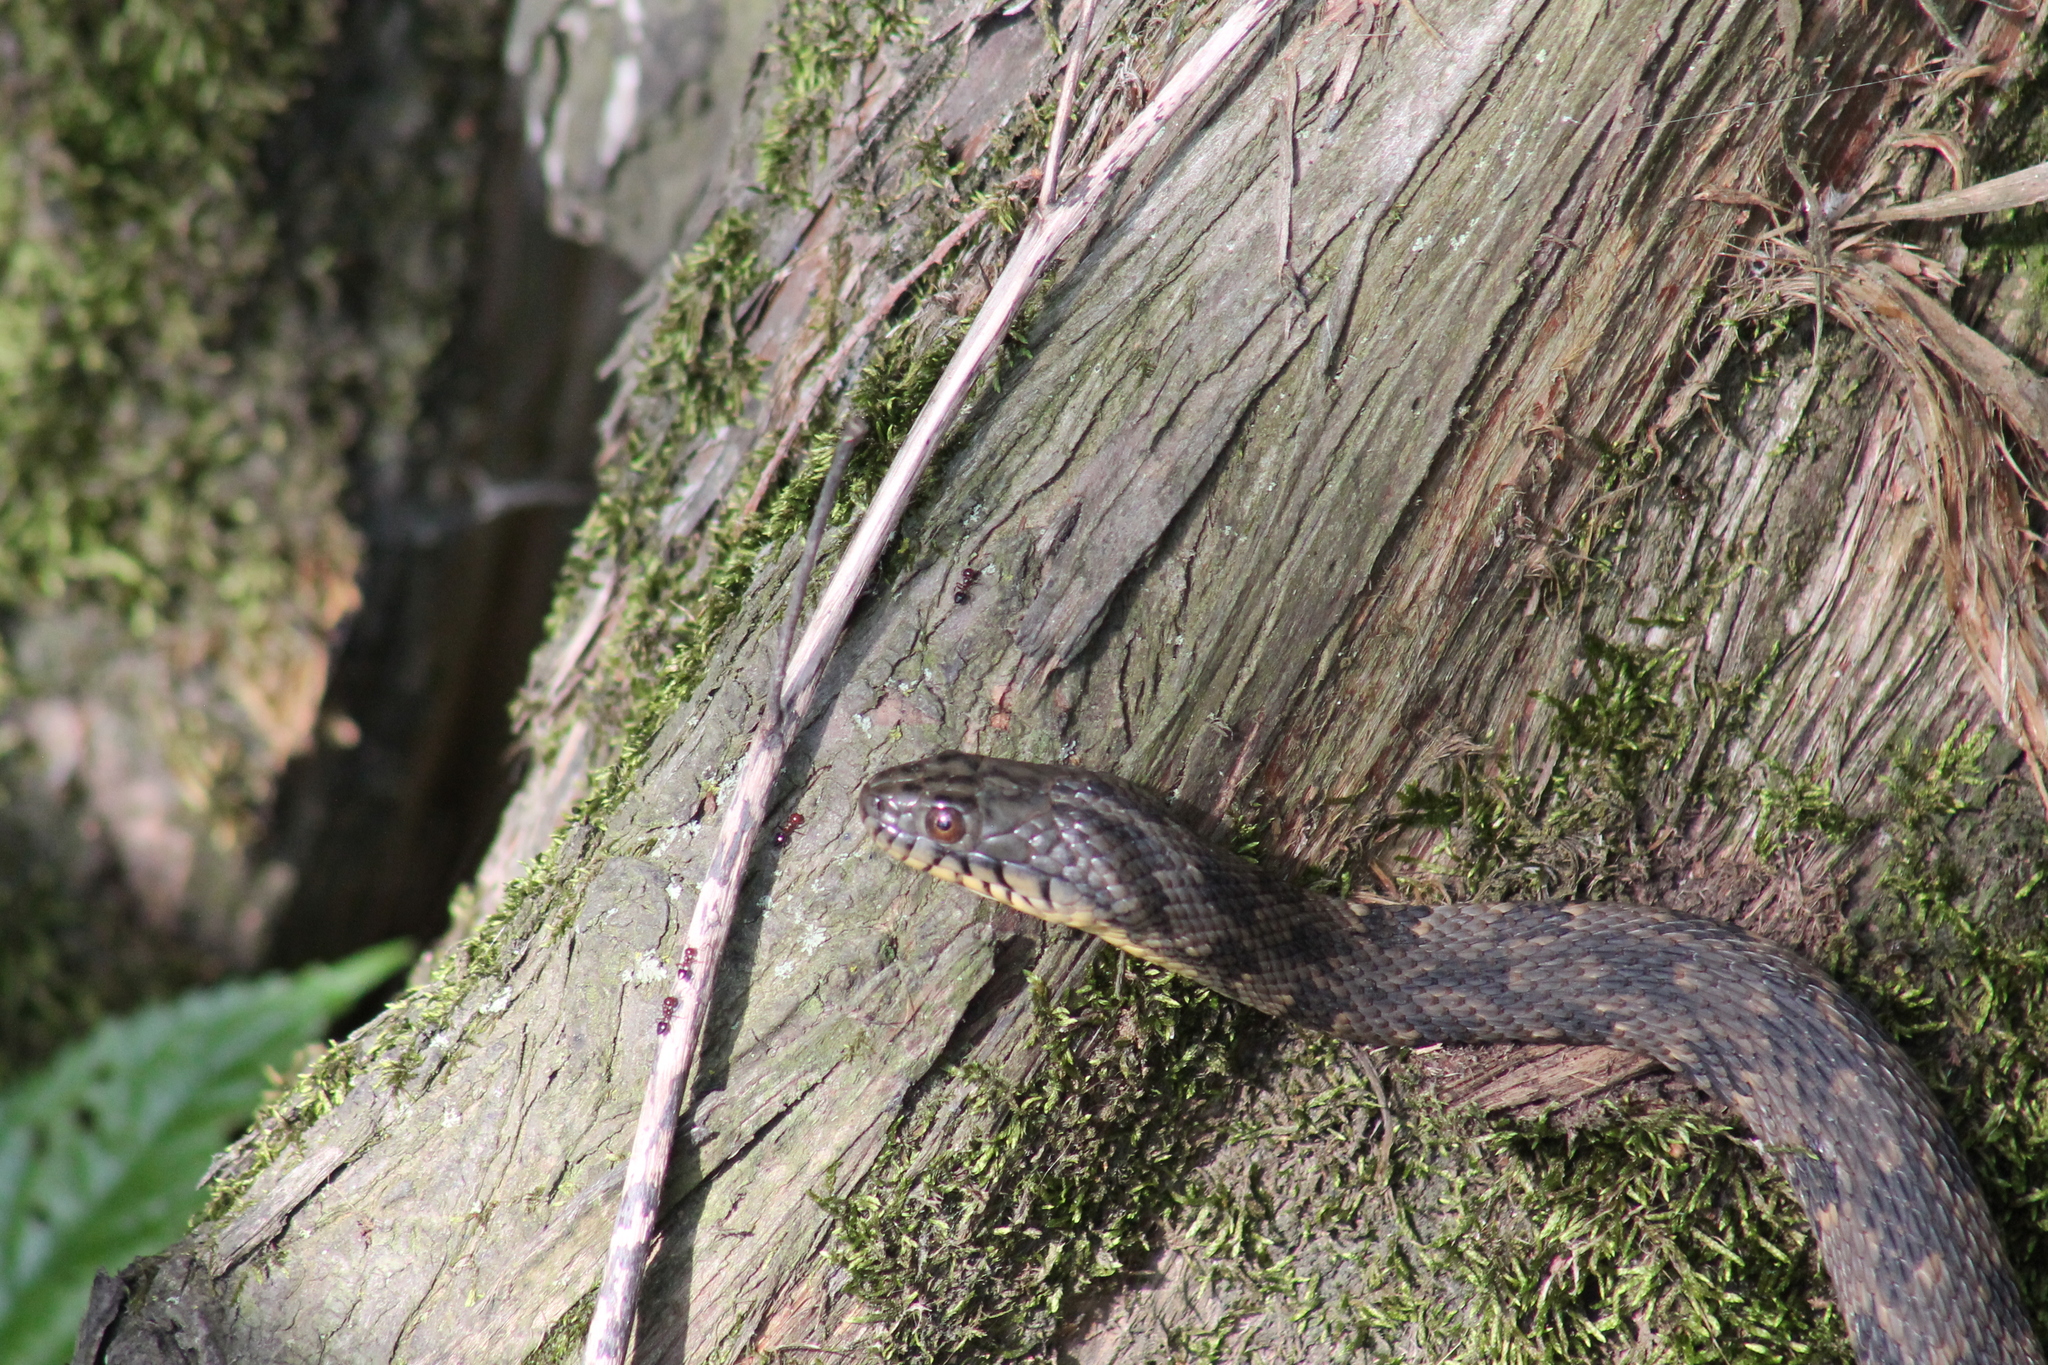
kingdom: Animalia
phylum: Chordata
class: Squamata
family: Colubridae
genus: Nerodia
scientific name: Nerodia rhombifer
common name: Diamondback water snake
